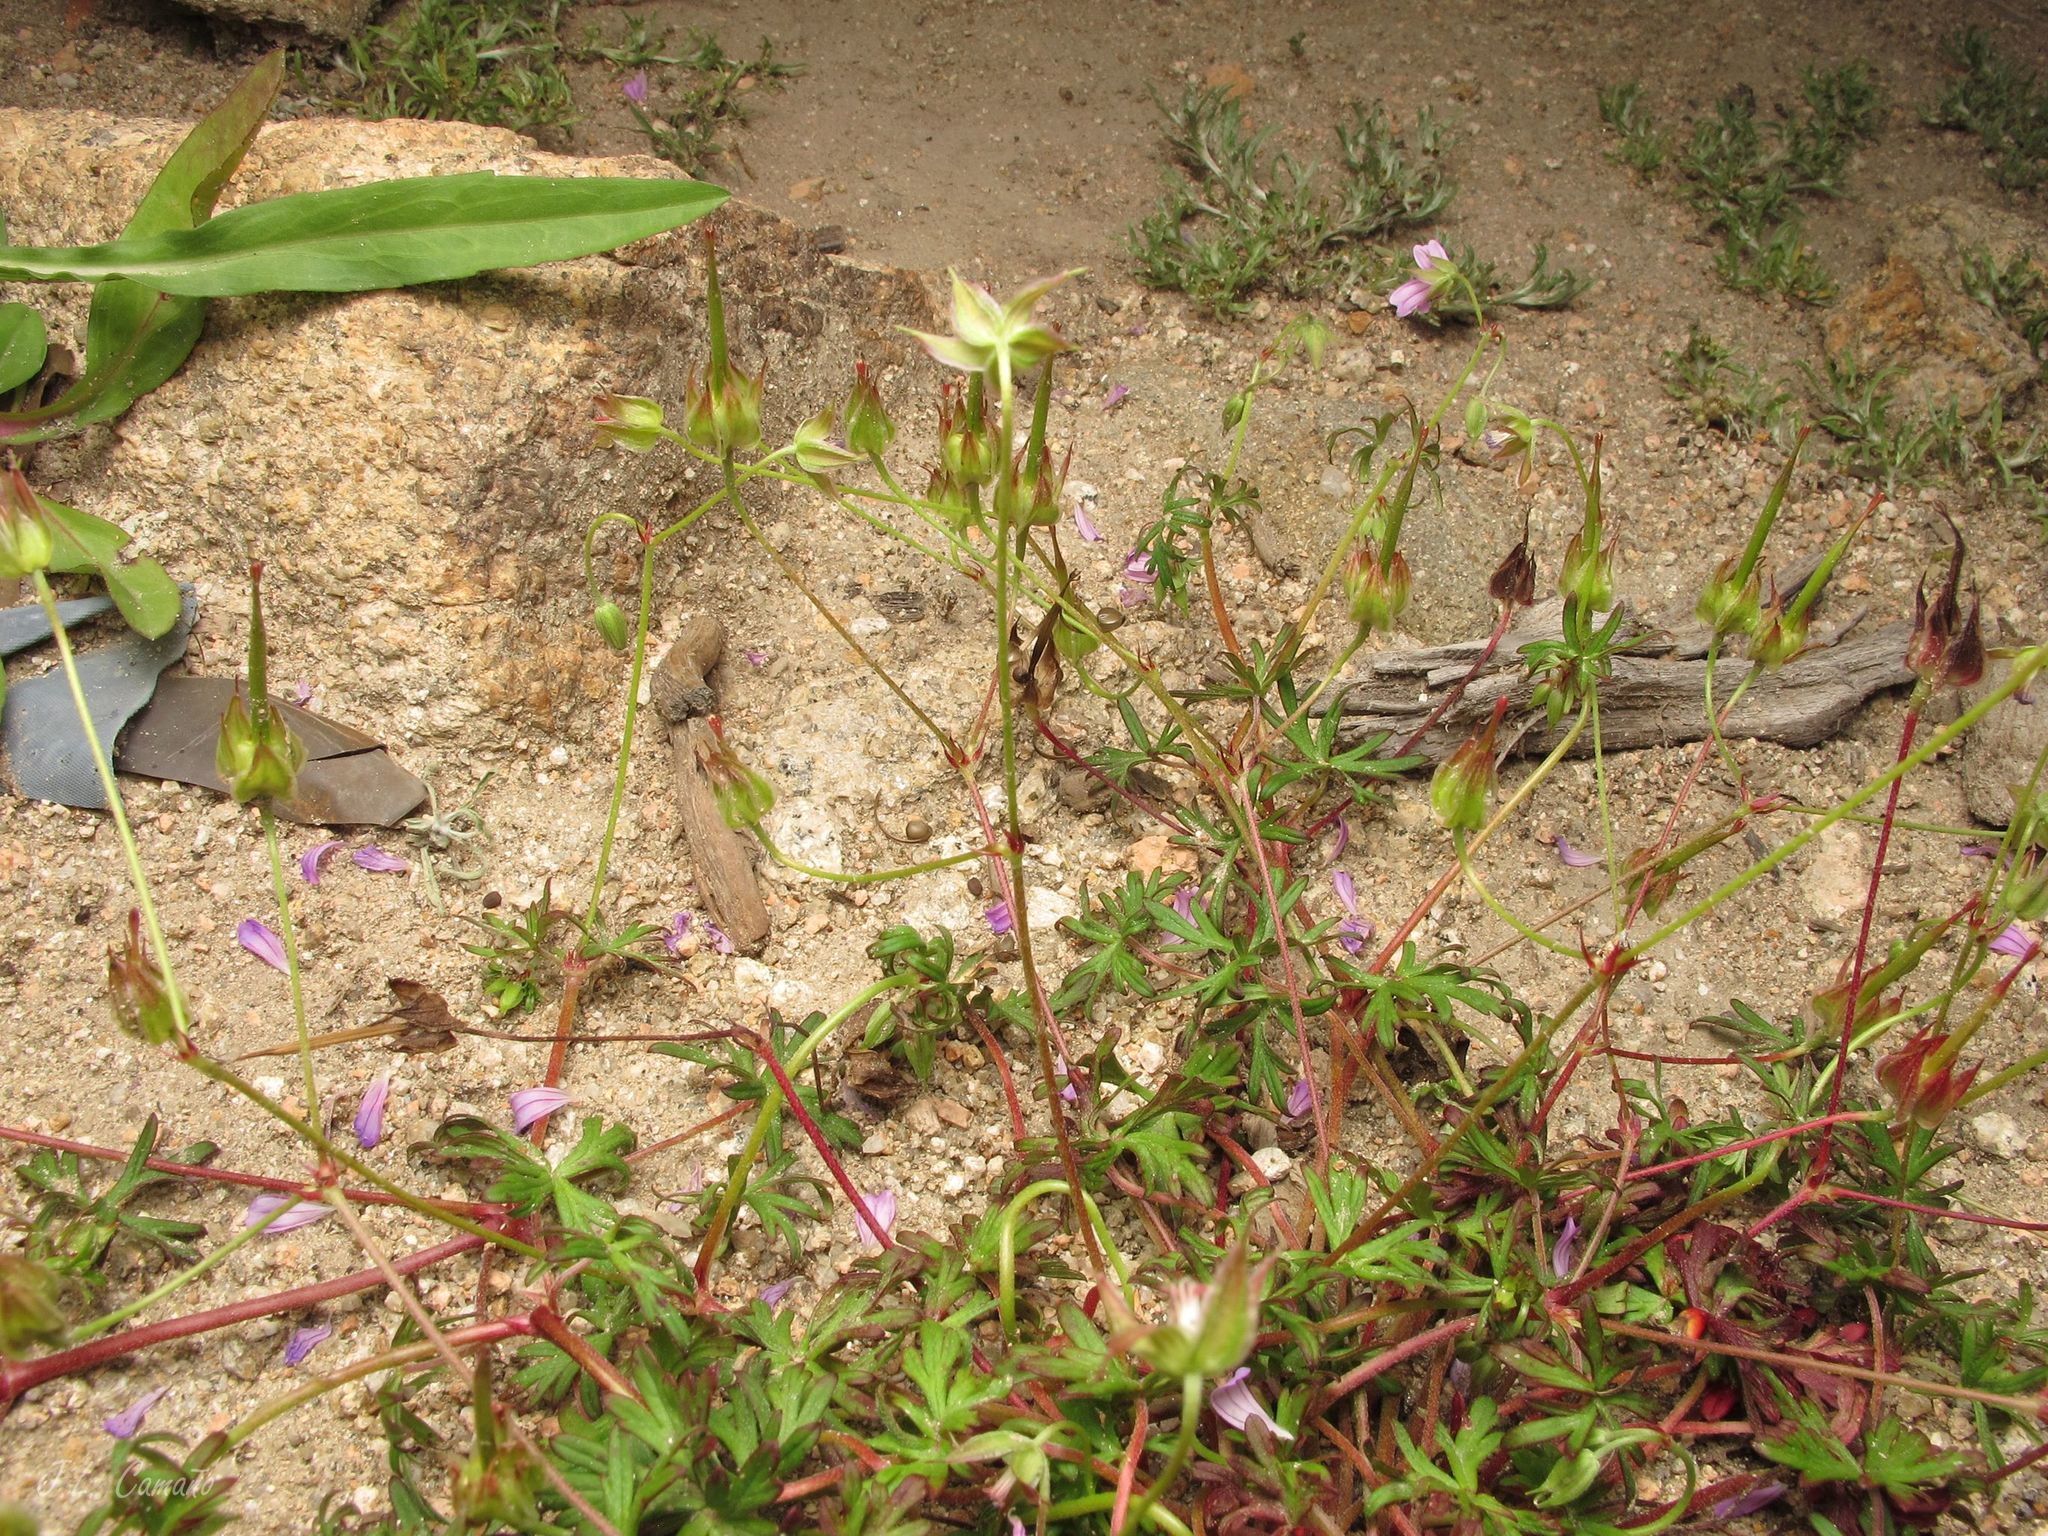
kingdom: Plantae
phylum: Tracheophyta
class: Magnoliopsida
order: Geraniales
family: Geraniaceae
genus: Geranium
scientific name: Geranium columbinum
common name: Long-stalked crane's-bill
